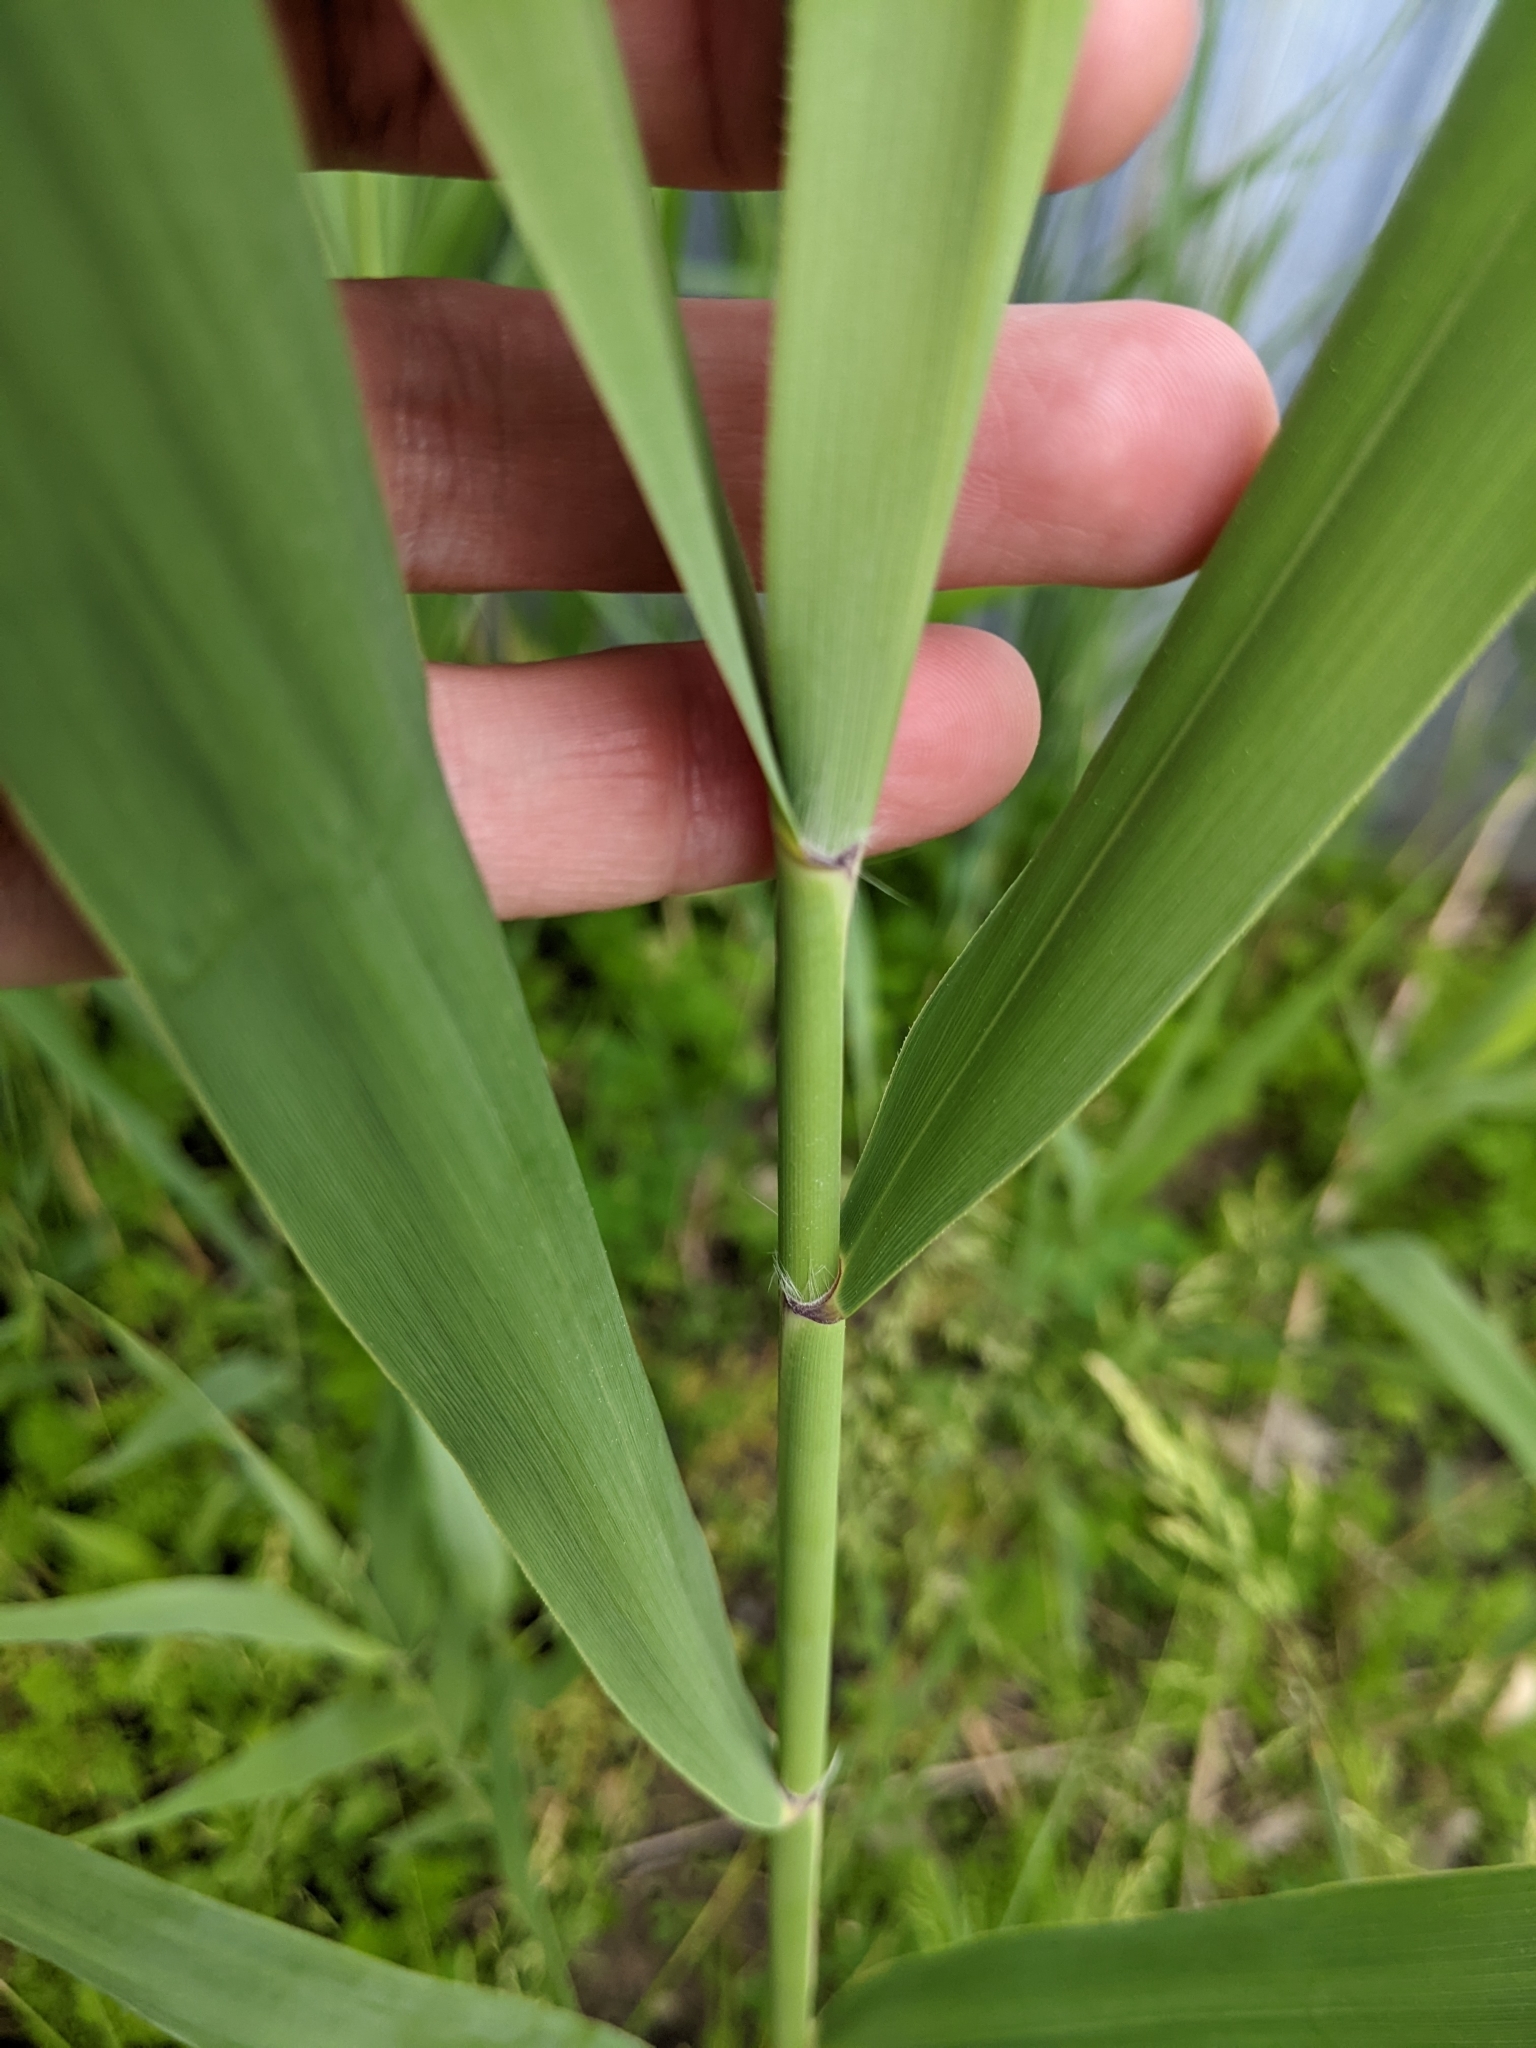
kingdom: Plantae
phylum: Tracheophyta
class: Liliopsida
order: Poales
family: Poaceae
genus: Phragmites
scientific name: Phragmites australis
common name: Common reed
